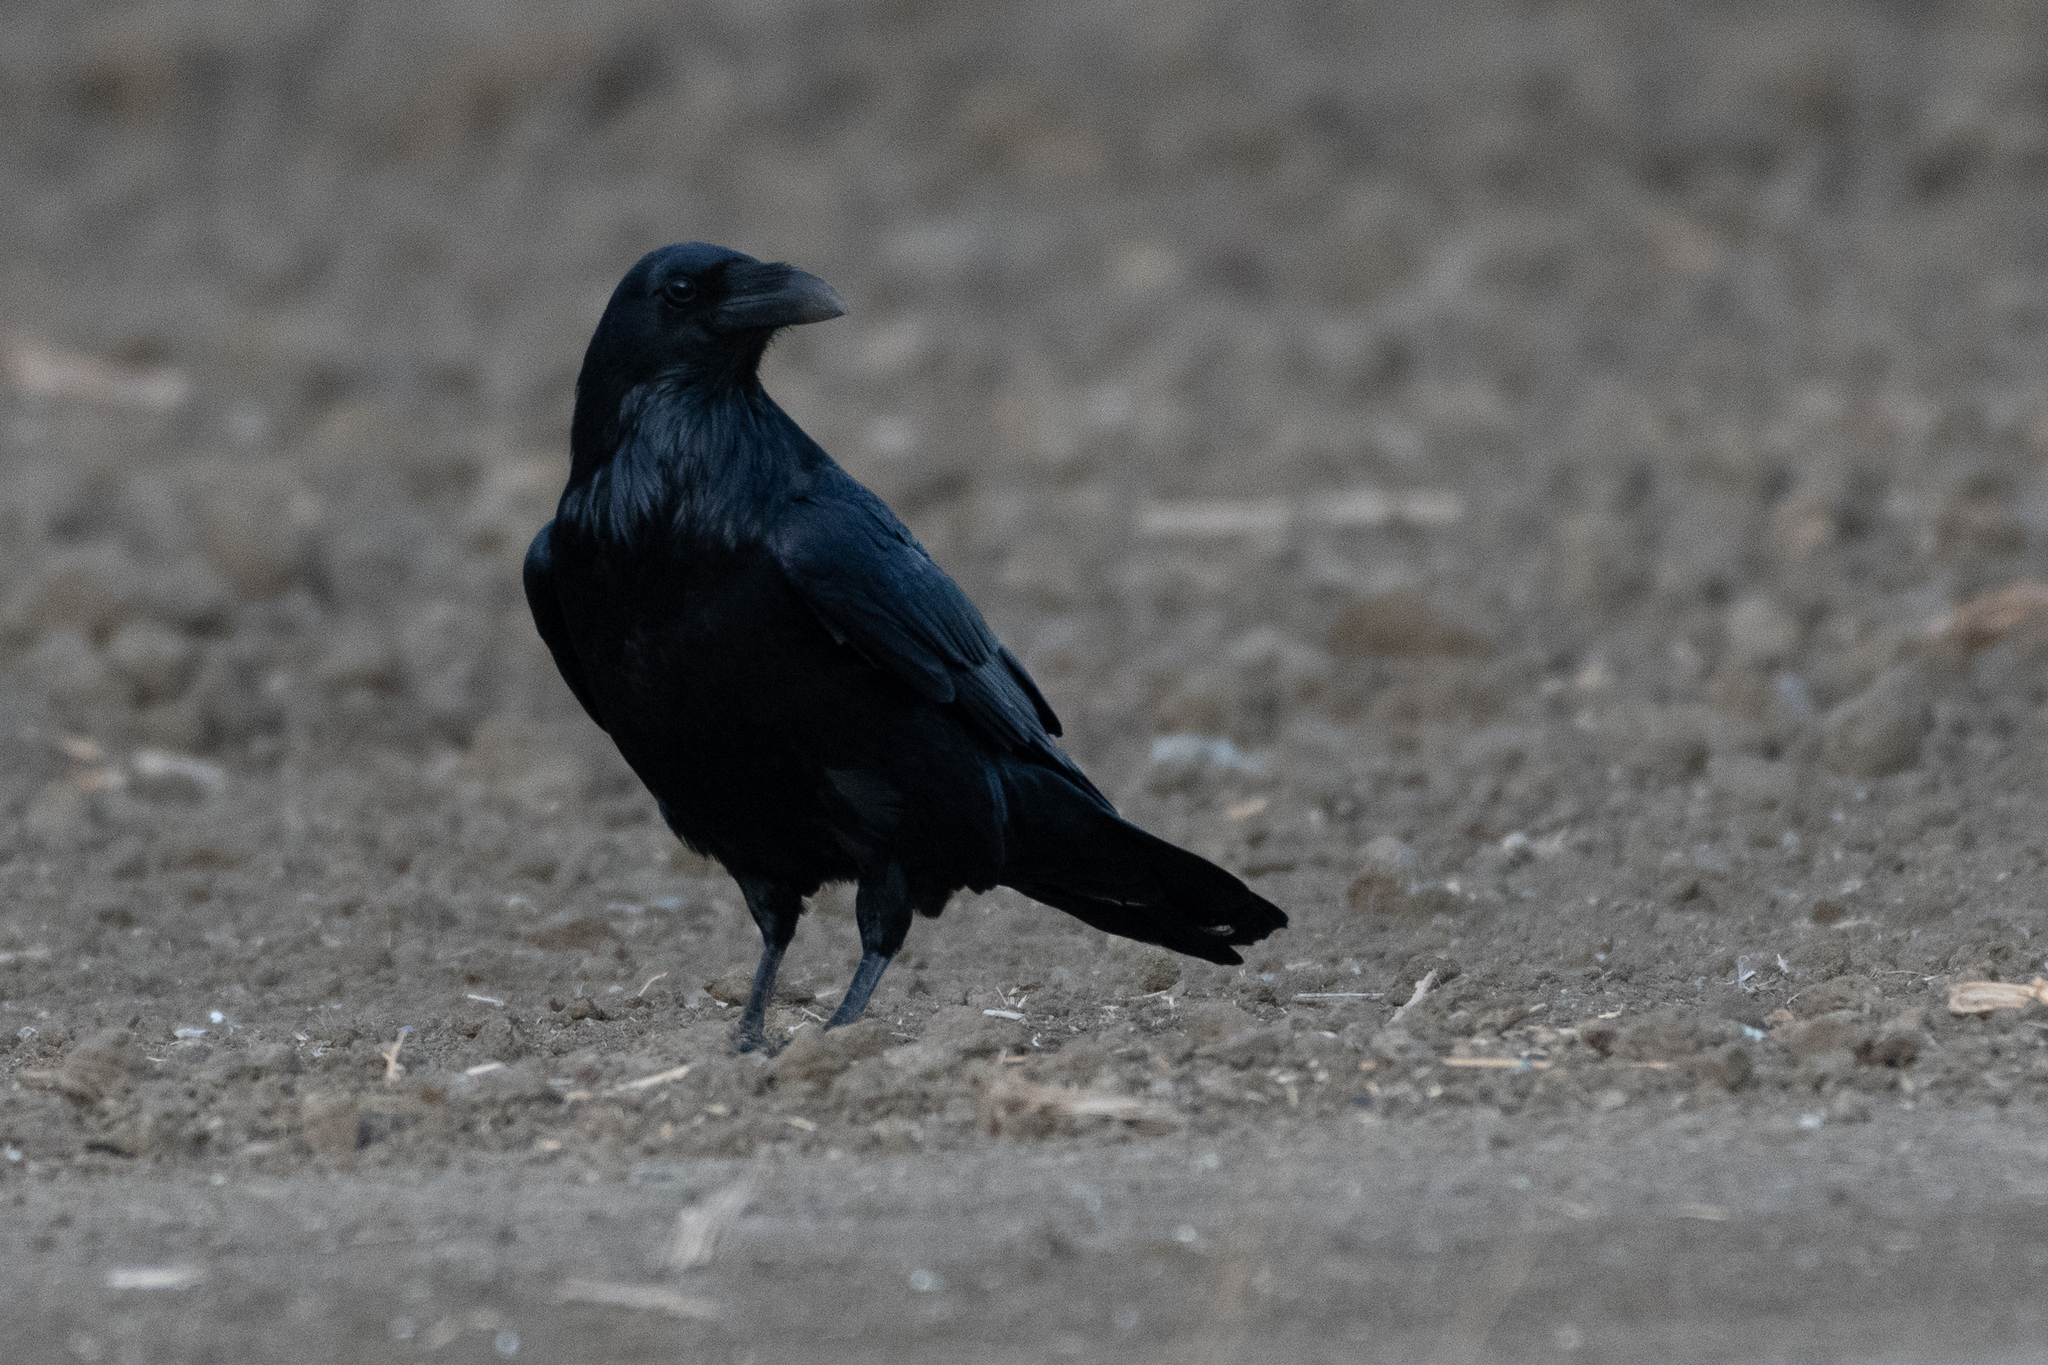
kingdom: Animalia
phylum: Chordata
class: Aves
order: Passeriformes
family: Corvidae
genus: Corvus
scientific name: Corvus corax
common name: Common raven
